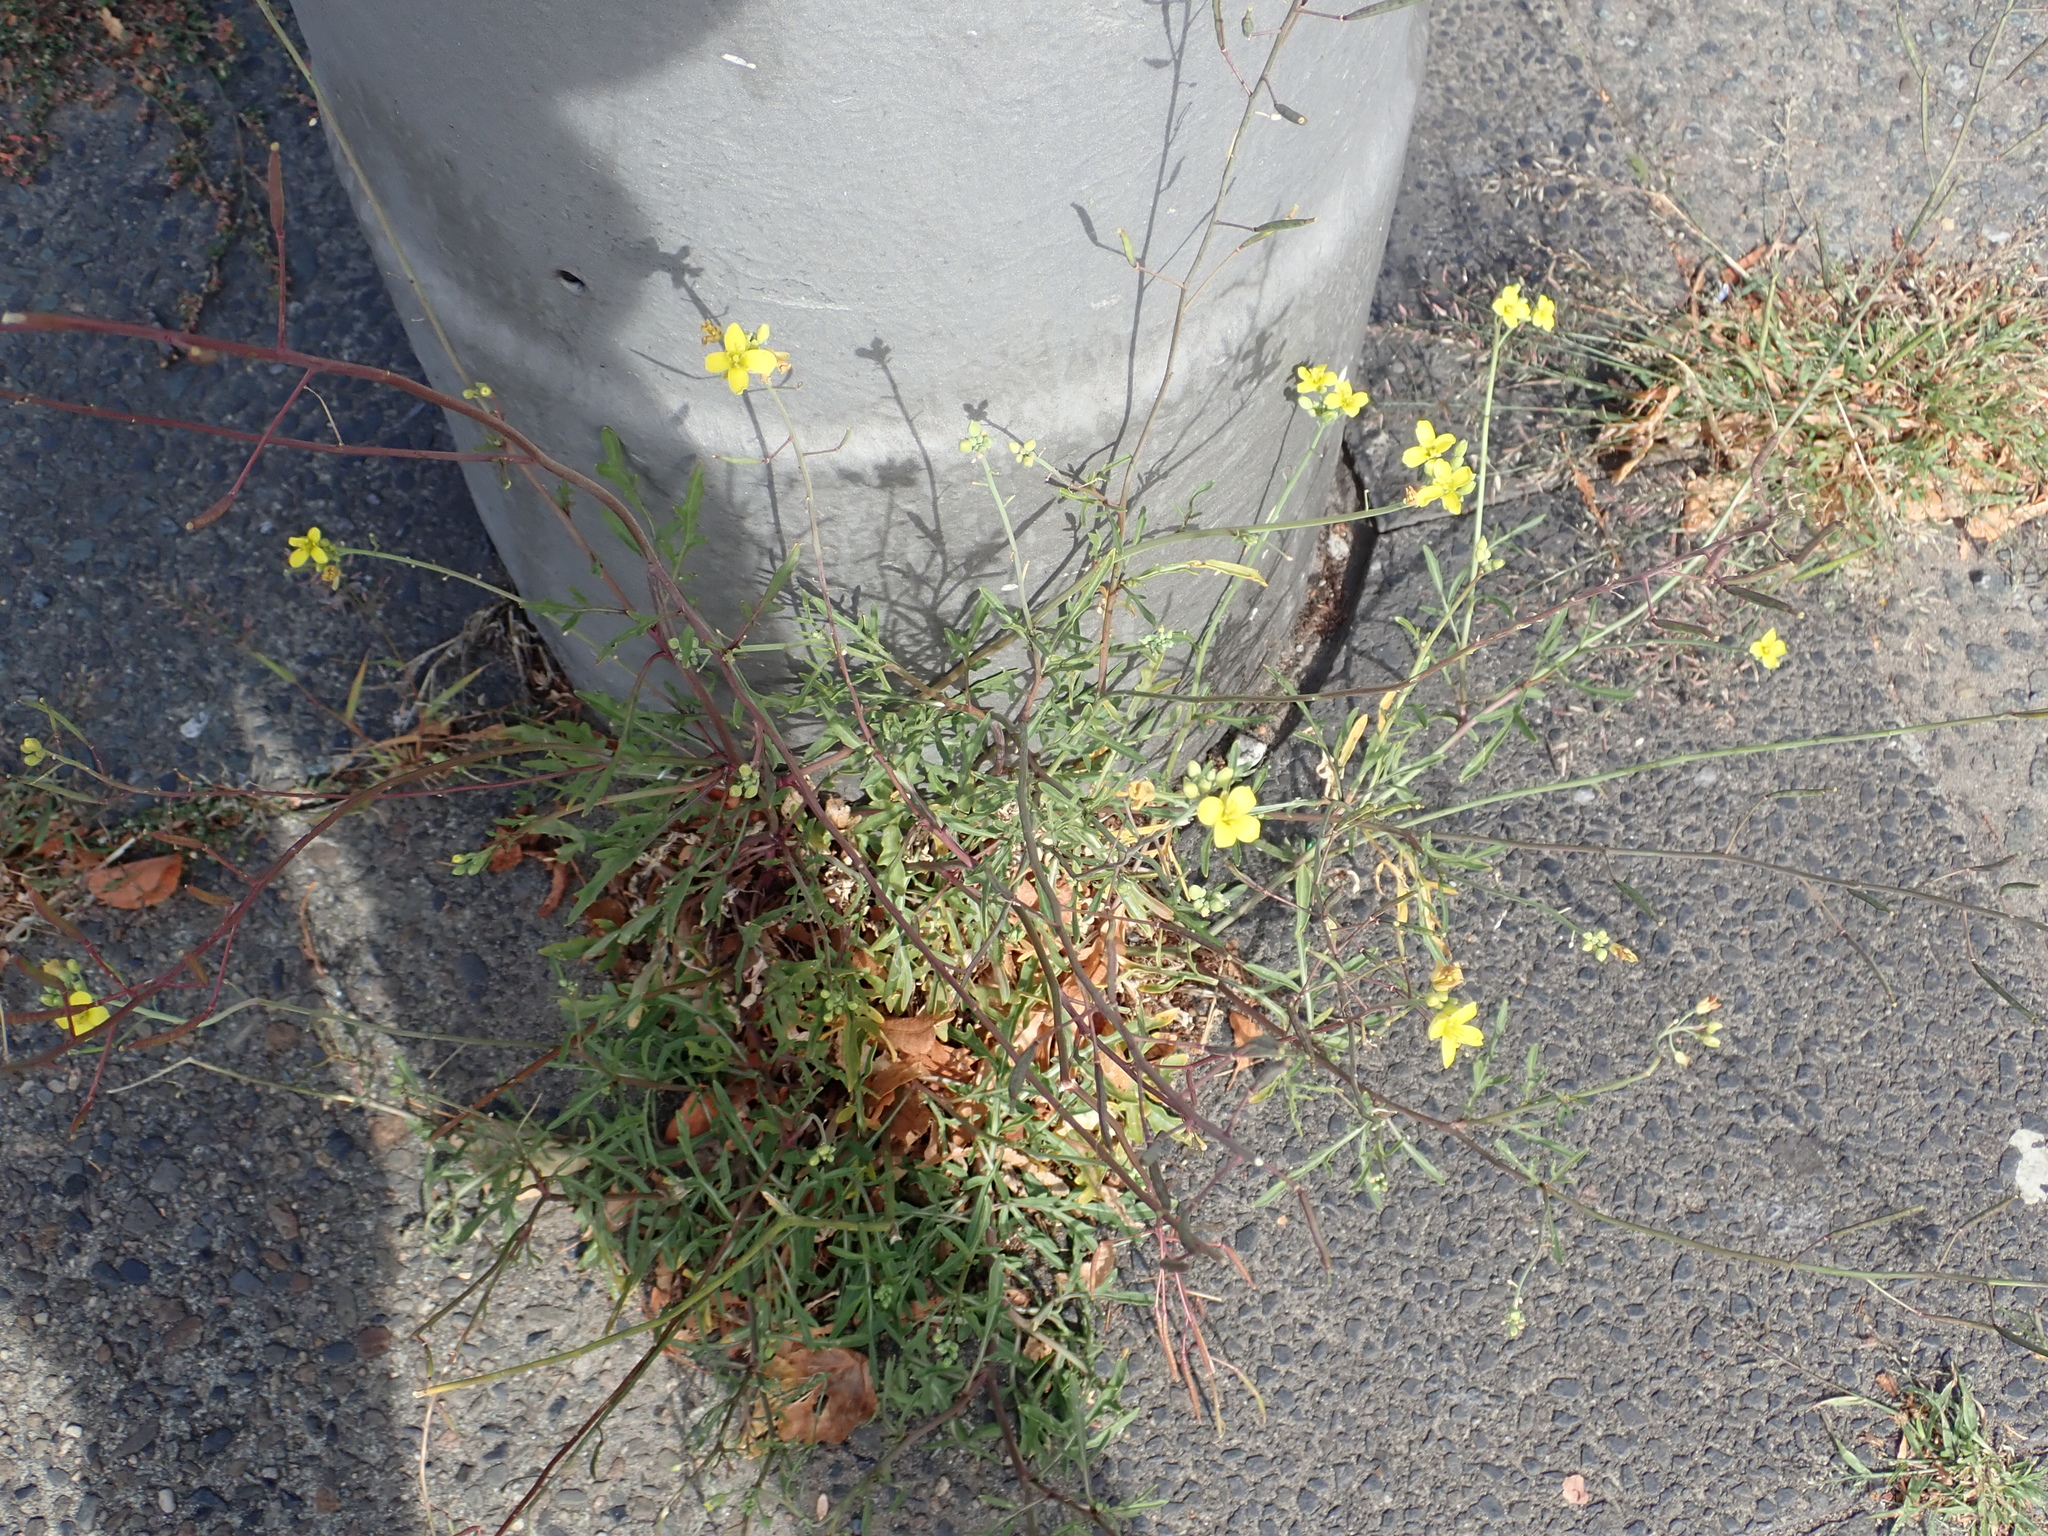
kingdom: Plantae
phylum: Tracheophyta
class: Magnoliopsida
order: Brassicales
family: Brassicaceae
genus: Diplotaxis
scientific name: Diplotaxis tenuifolia
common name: Perennial wall-rocket
